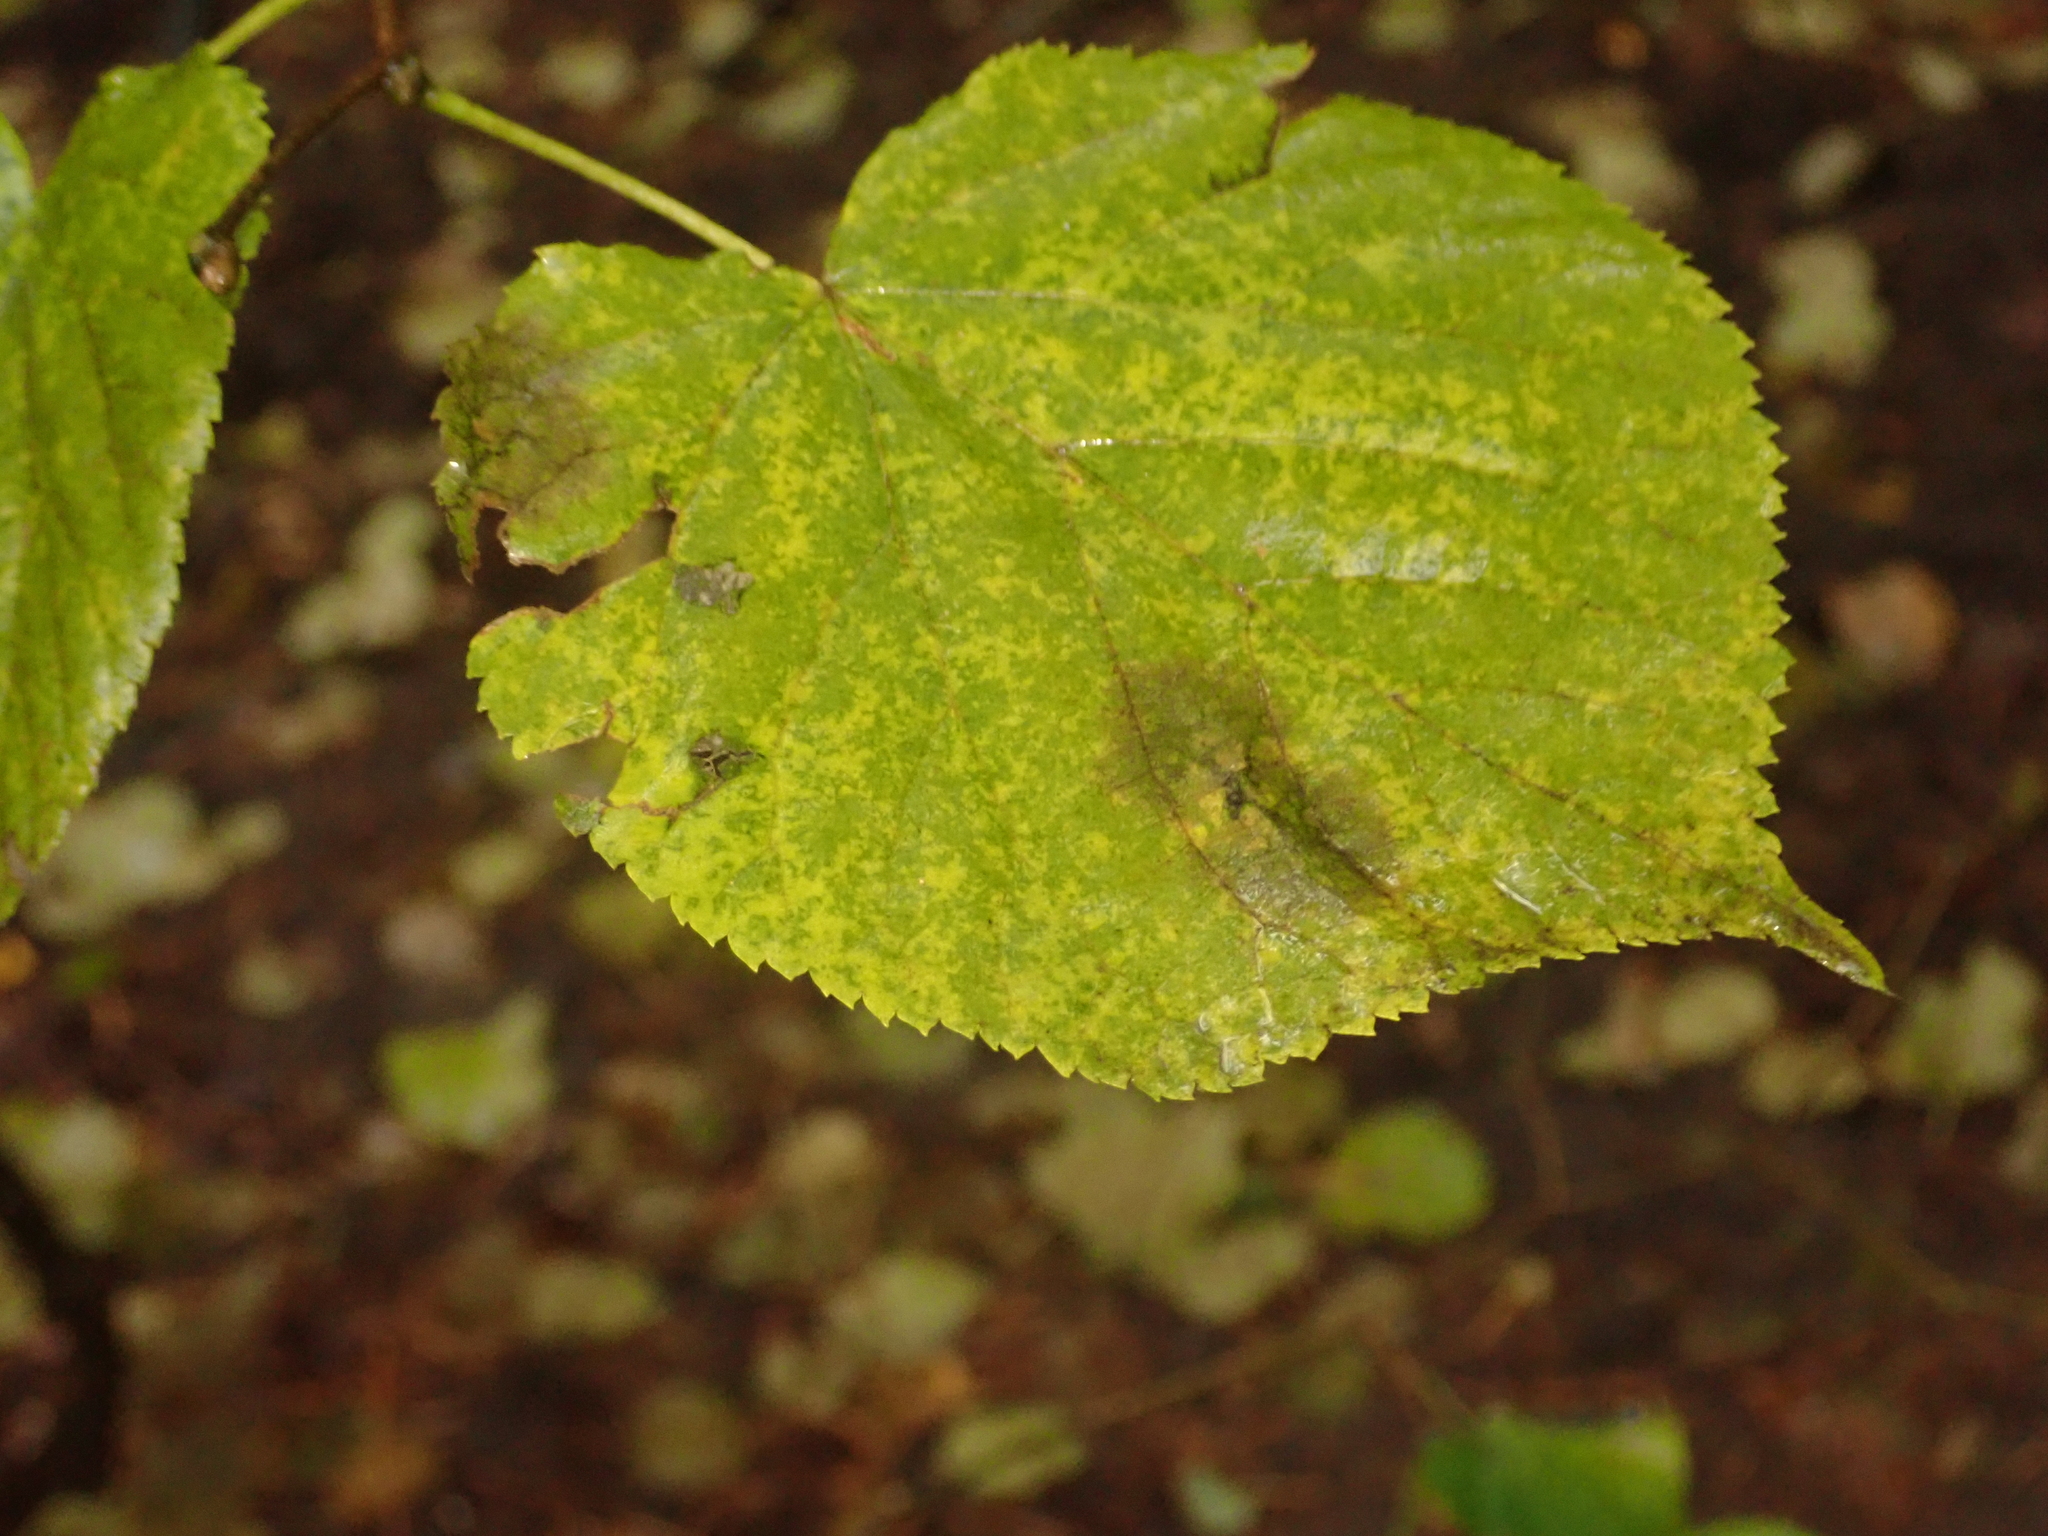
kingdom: Plantae
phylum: Tracheophyta
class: Magnoliopsida
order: Malvales
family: Malvaceae
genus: Tilia
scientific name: Tilia cordata
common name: Small-leaved lime
